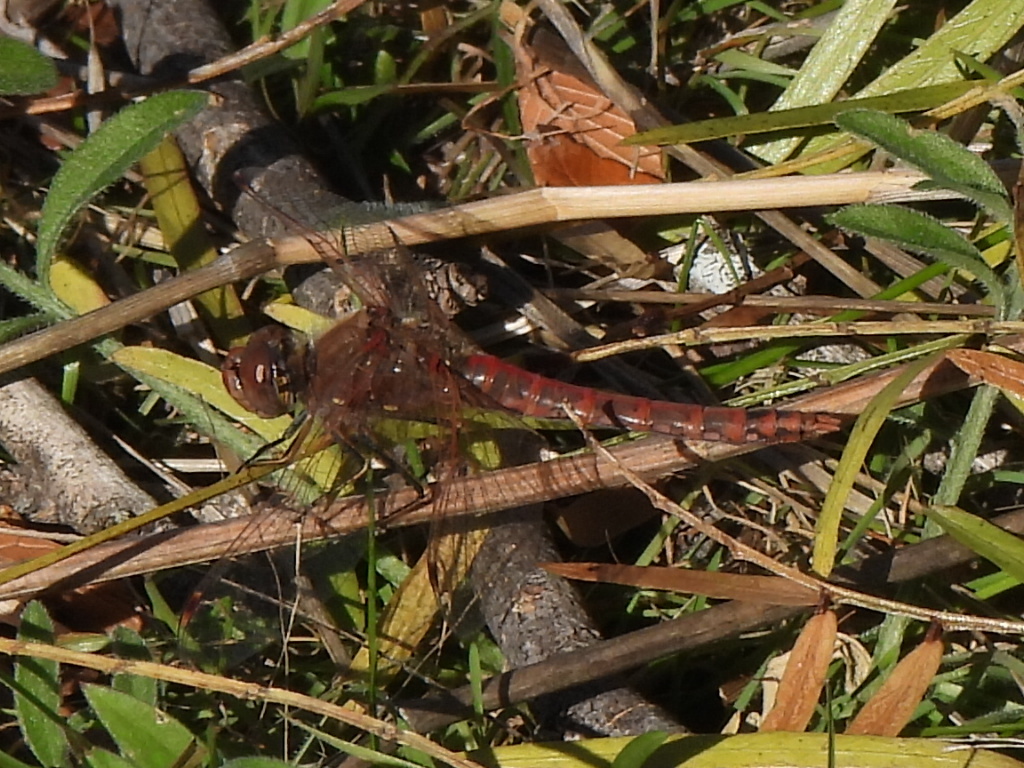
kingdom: Animalia
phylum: Arthropoda
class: Insecta
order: Odonata
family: Libellulidae
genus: Sympetrum
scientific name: Sympetrum corruptum
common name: Variegated meadowhawk
